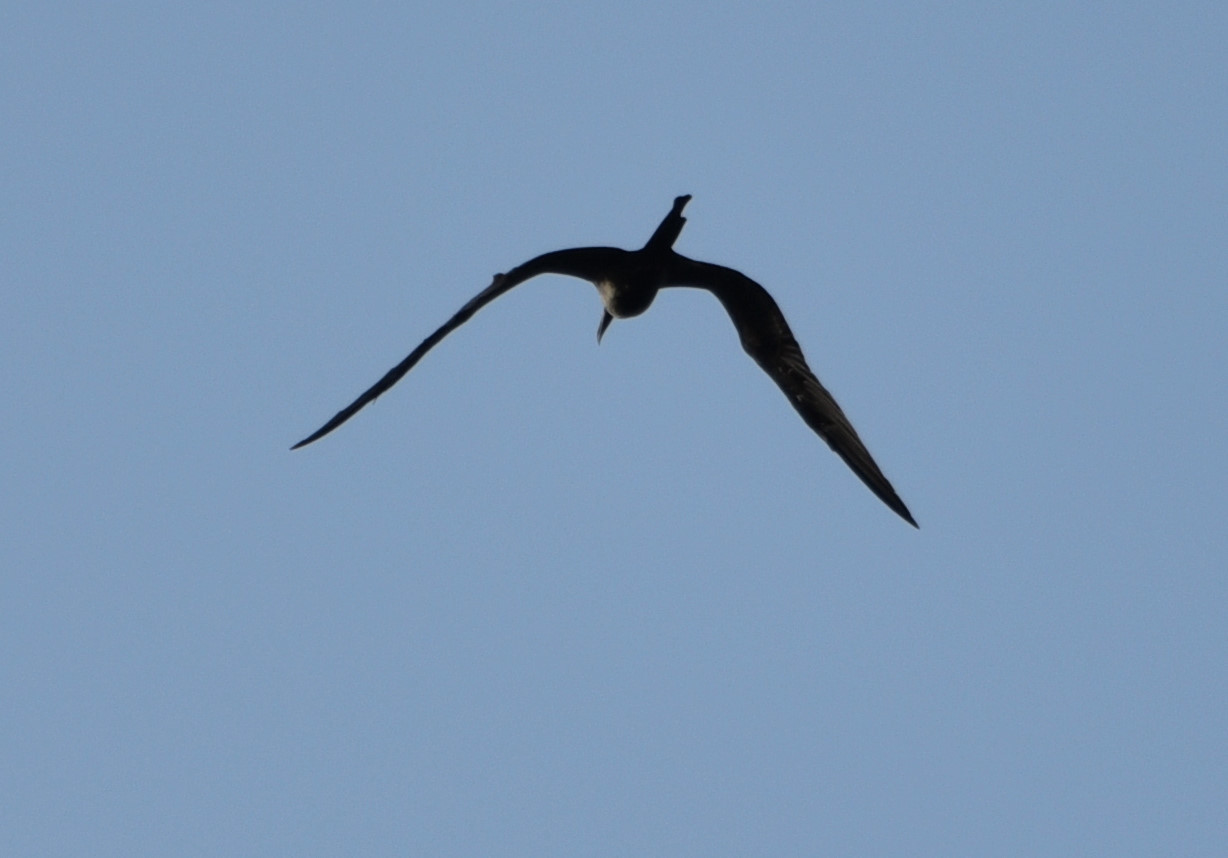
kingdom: Animalia
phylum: Chordata
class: Aves
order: Suliformes
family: Fregatidae
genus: Fregata
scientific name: Fregata magnificens
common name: Magnificent frigatebird
